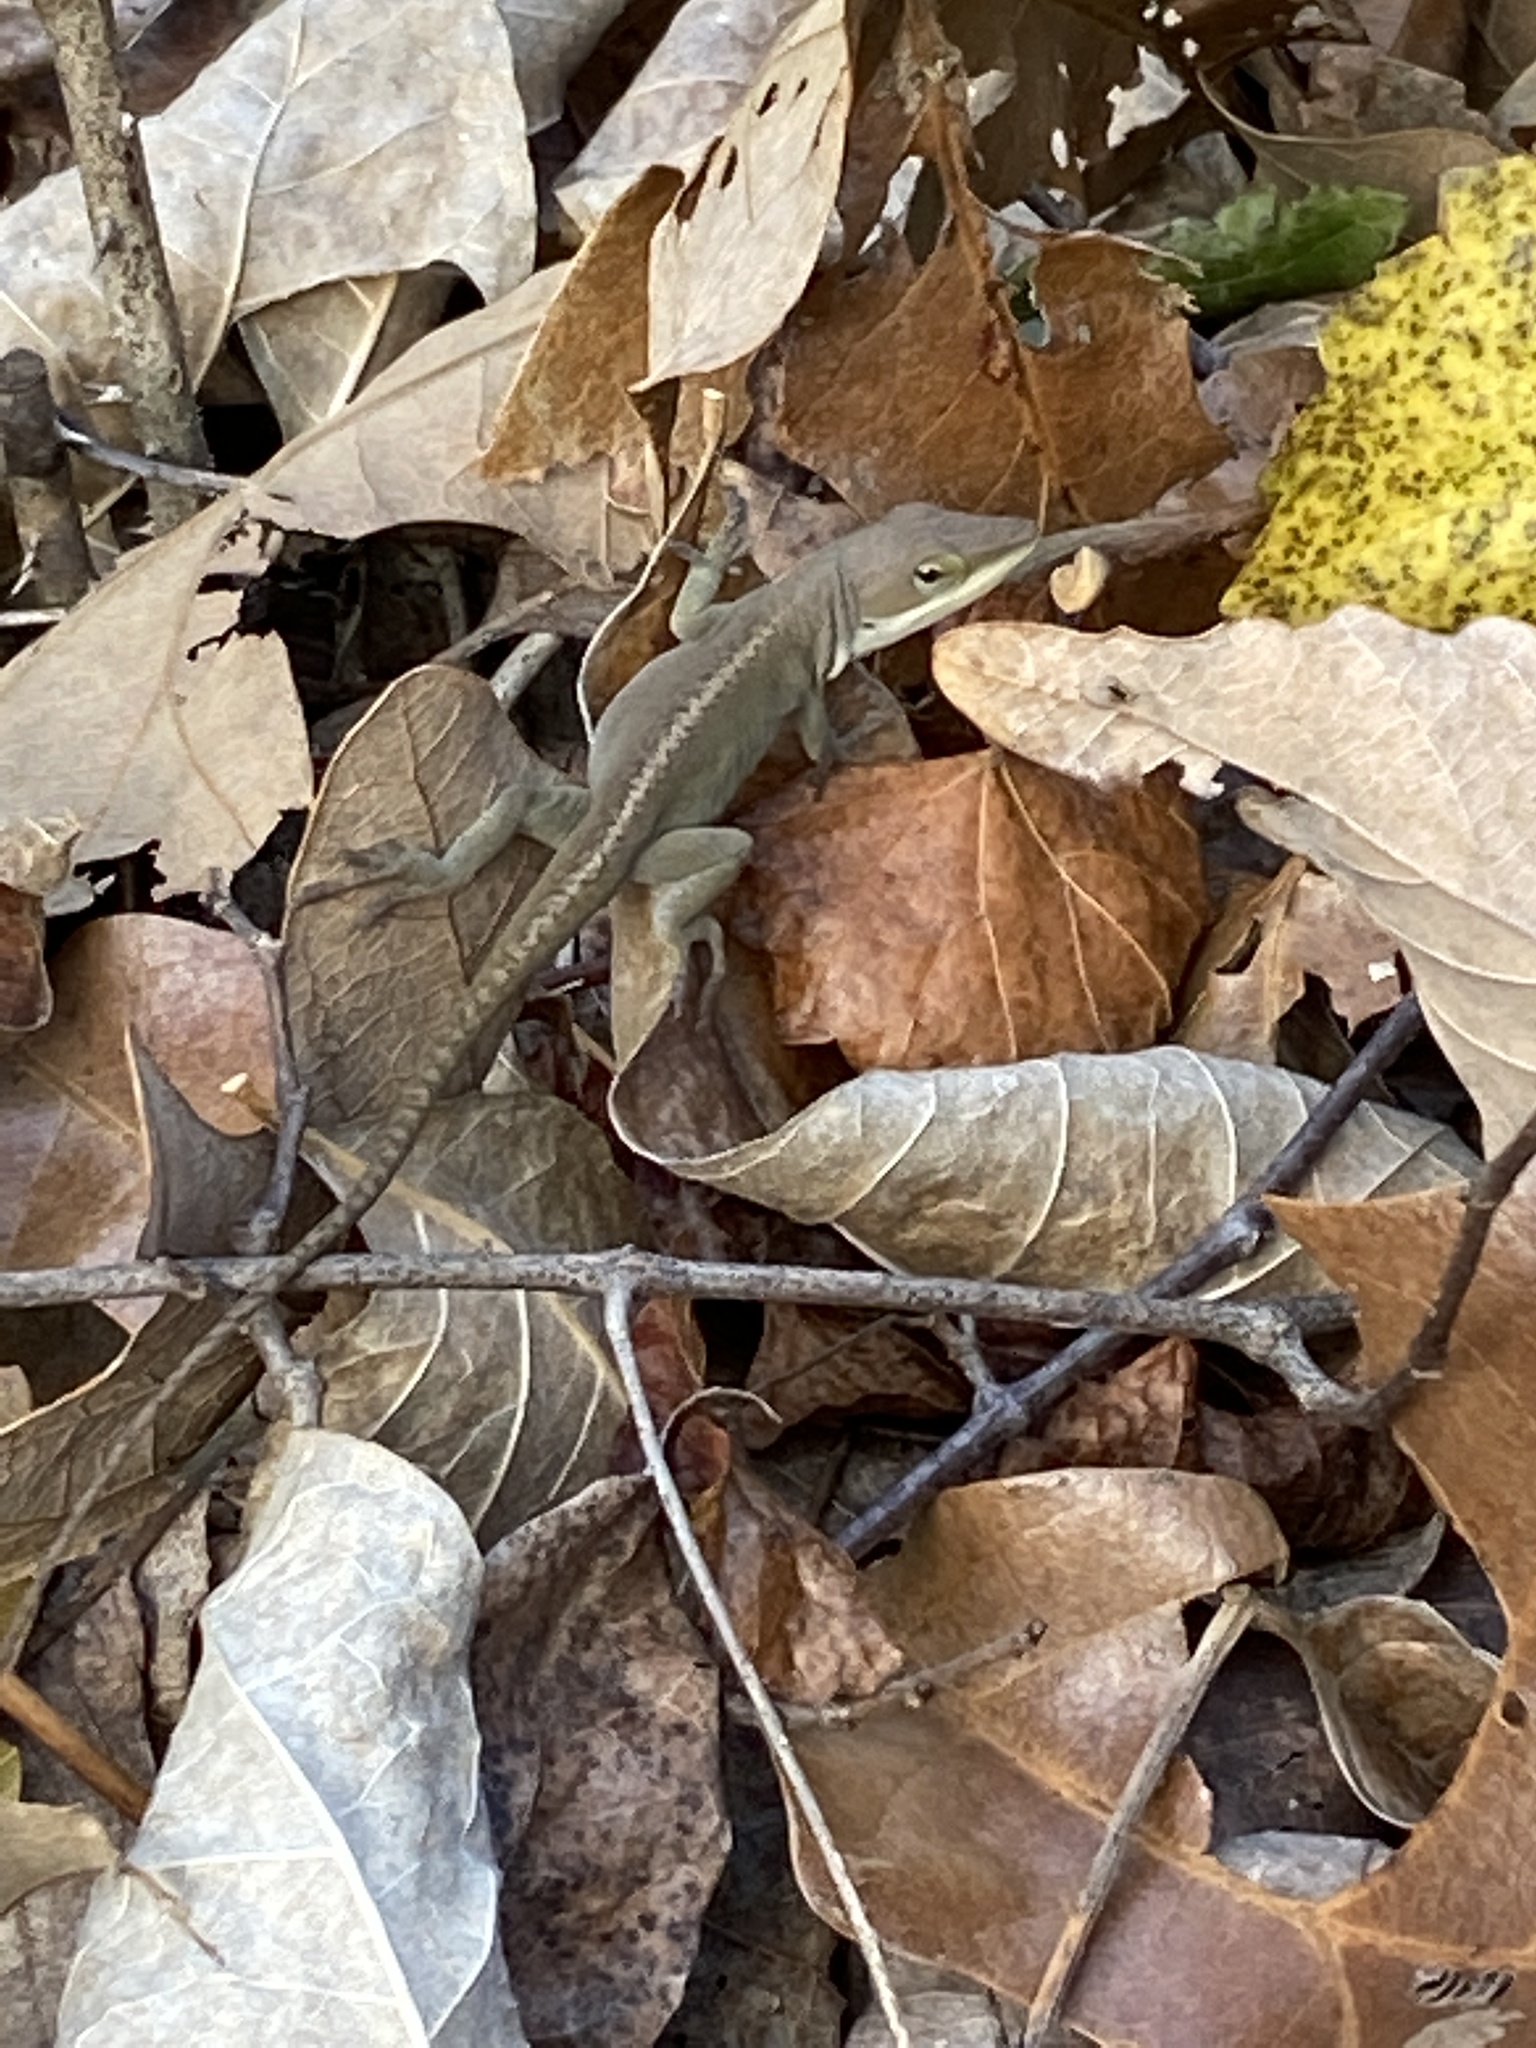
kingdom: Animalia
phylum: Chordata
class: Squamata
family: Dactyloidae
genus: Anolis
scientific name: Anolis carolinensis
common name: Green anole
